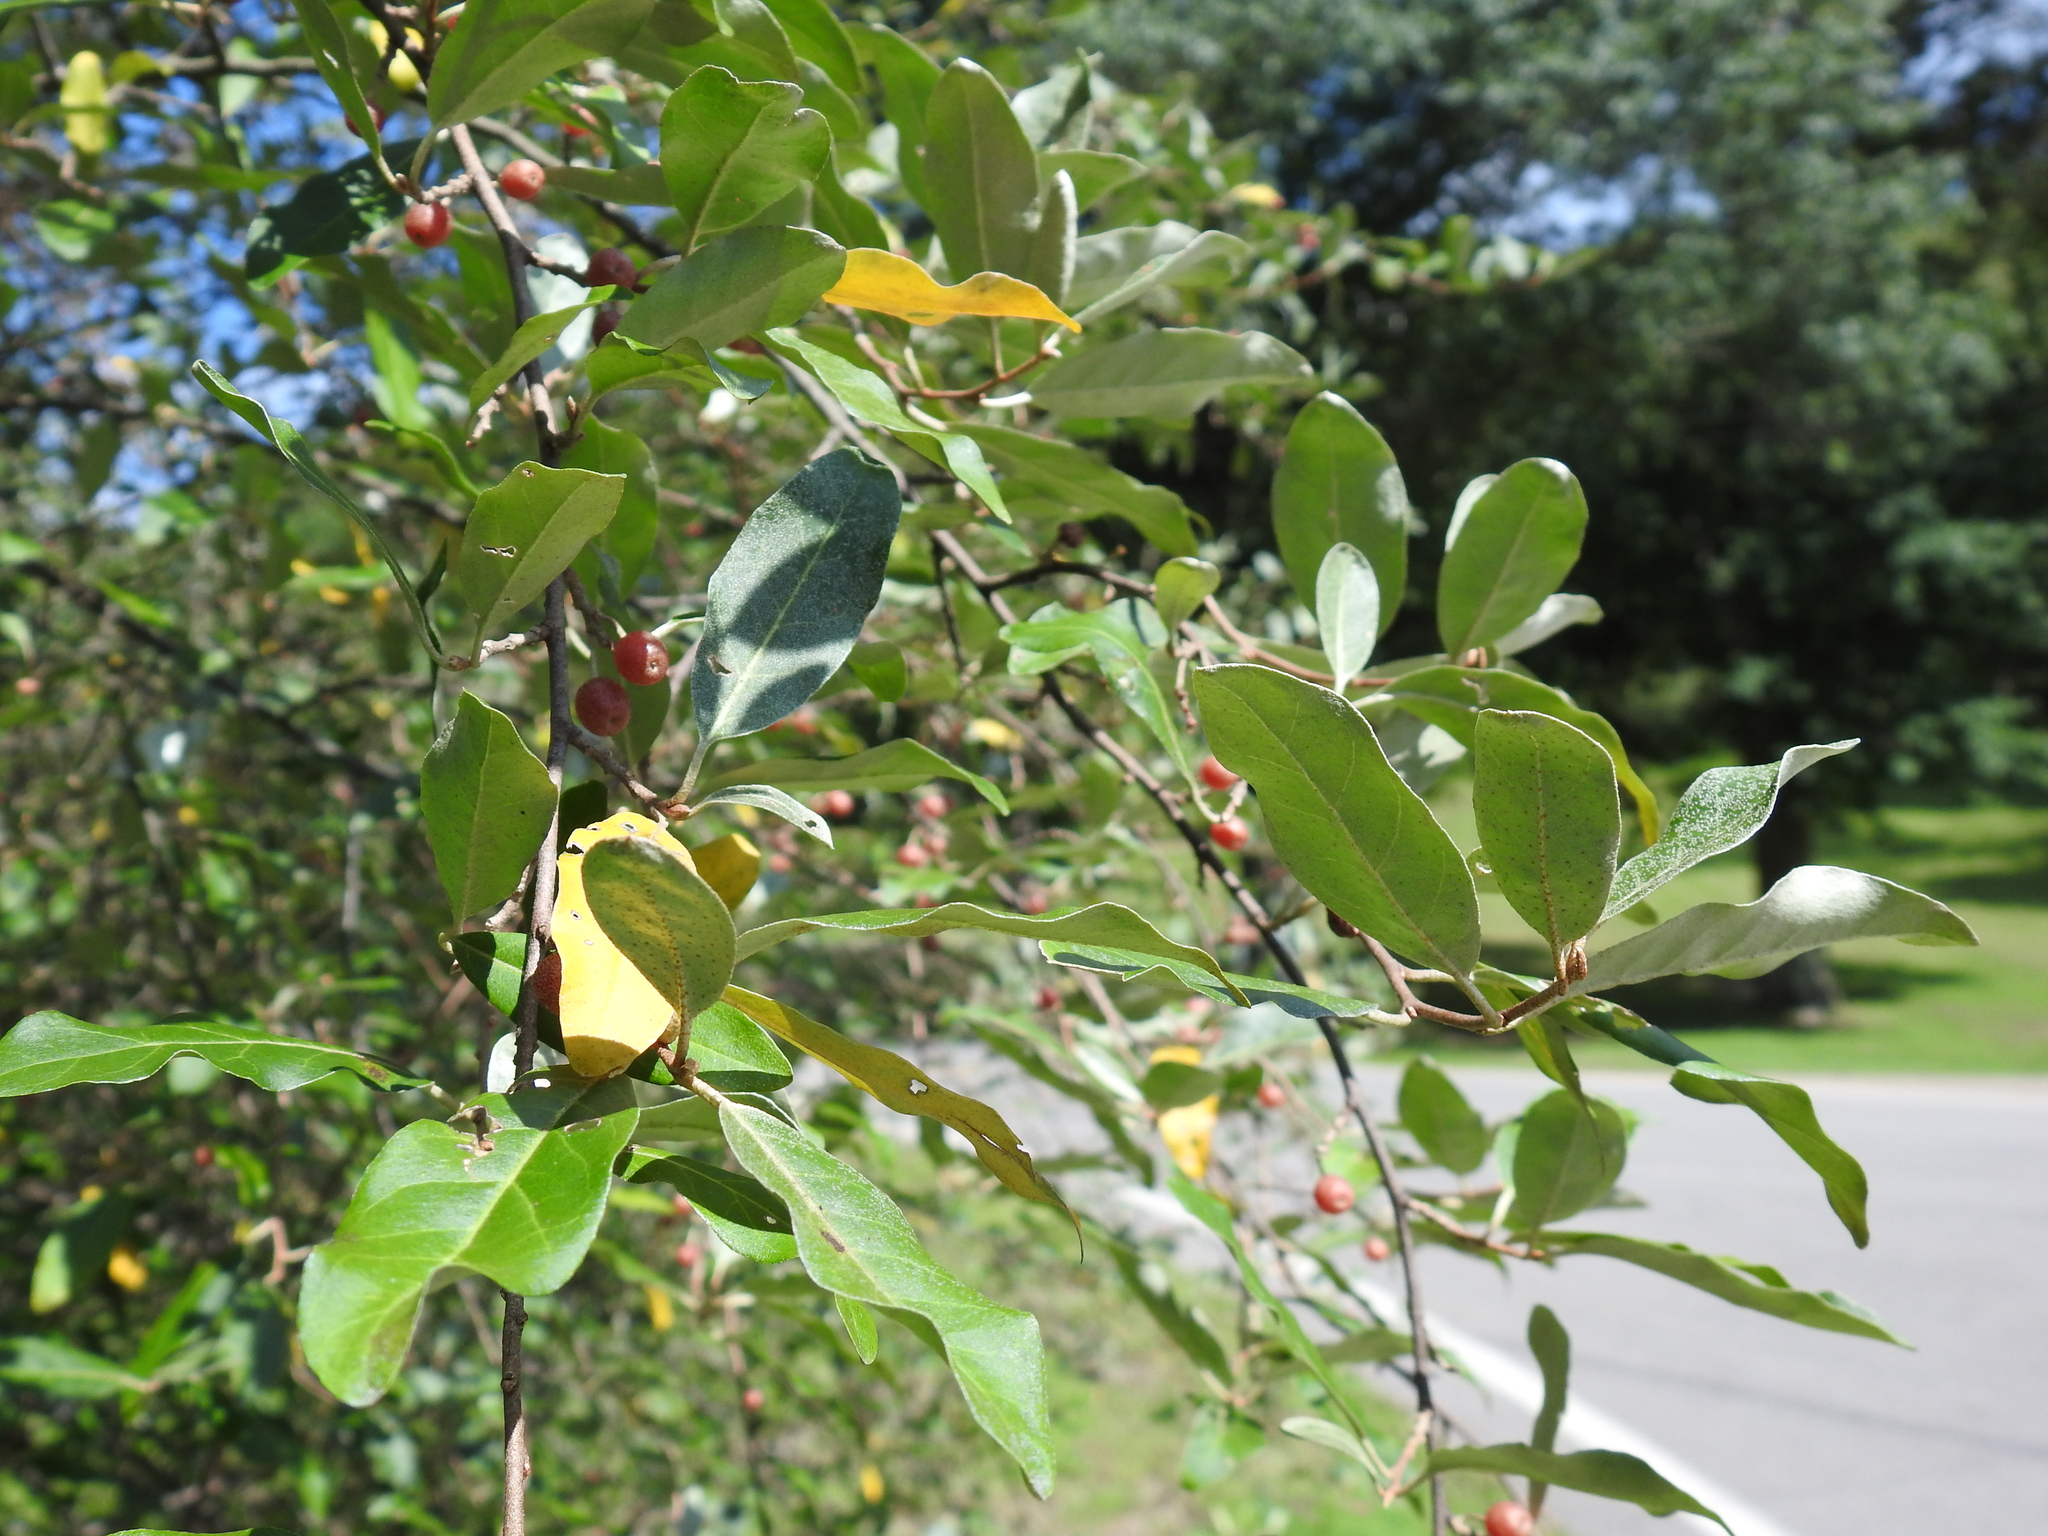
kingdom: Plantae
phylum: Tracheophyta
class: Magnoliopsida
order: Rosales
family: Elaeagnaceae
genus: Elaeagnus
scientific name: Elaeagnus umbellata
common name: Autumn olive
